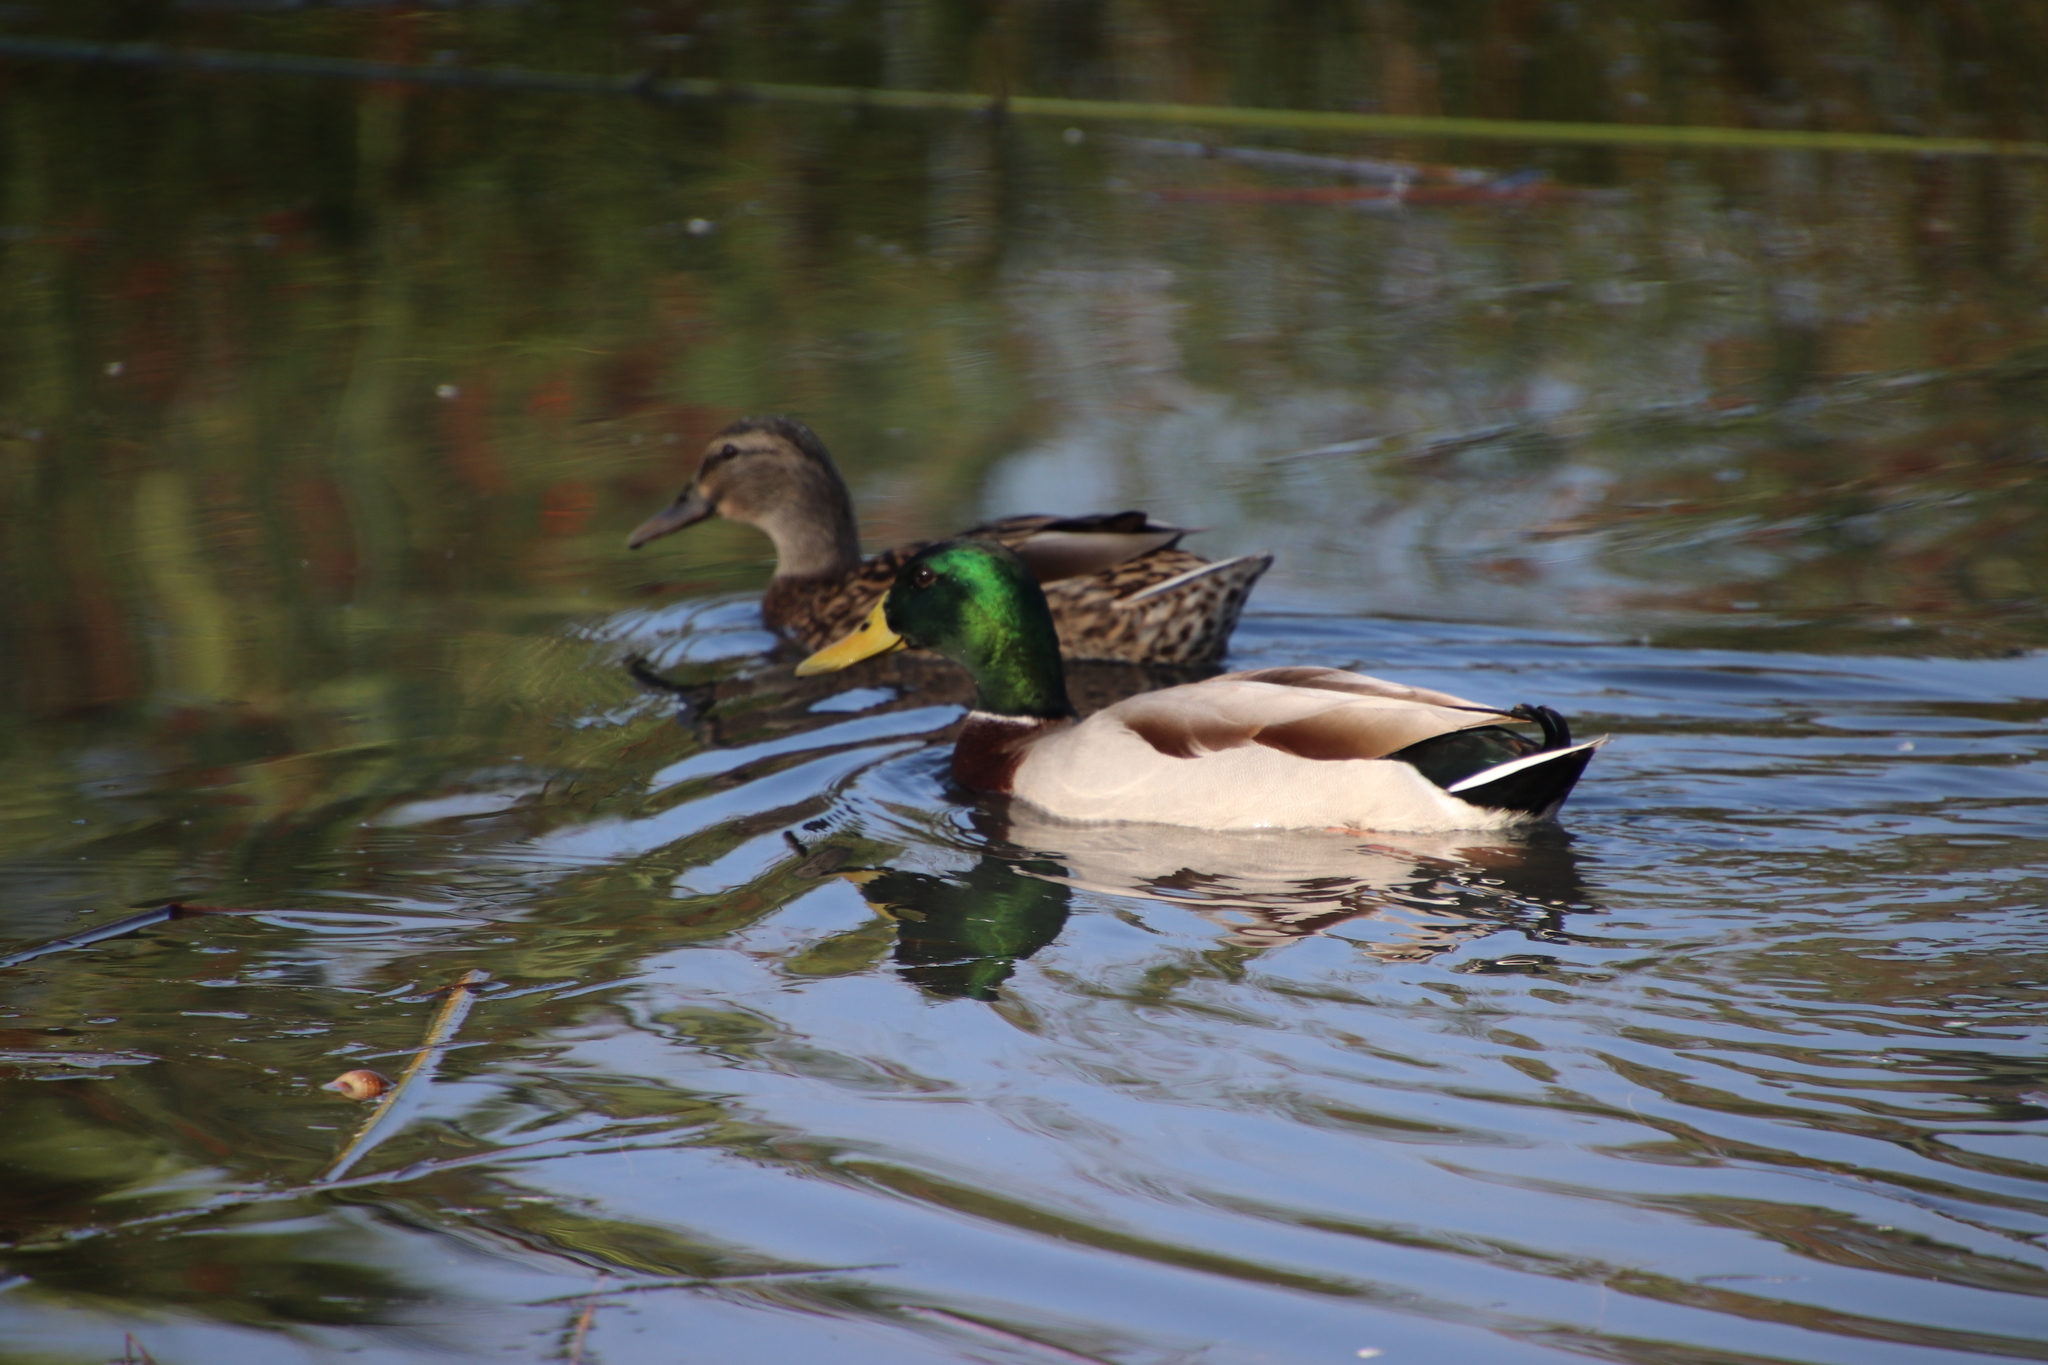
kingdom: Animalia
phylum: Chordata
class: Aves
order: Anseriformes
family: Anatidae
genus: Anas
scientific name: Anas platyrhynchos
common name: Mallard
